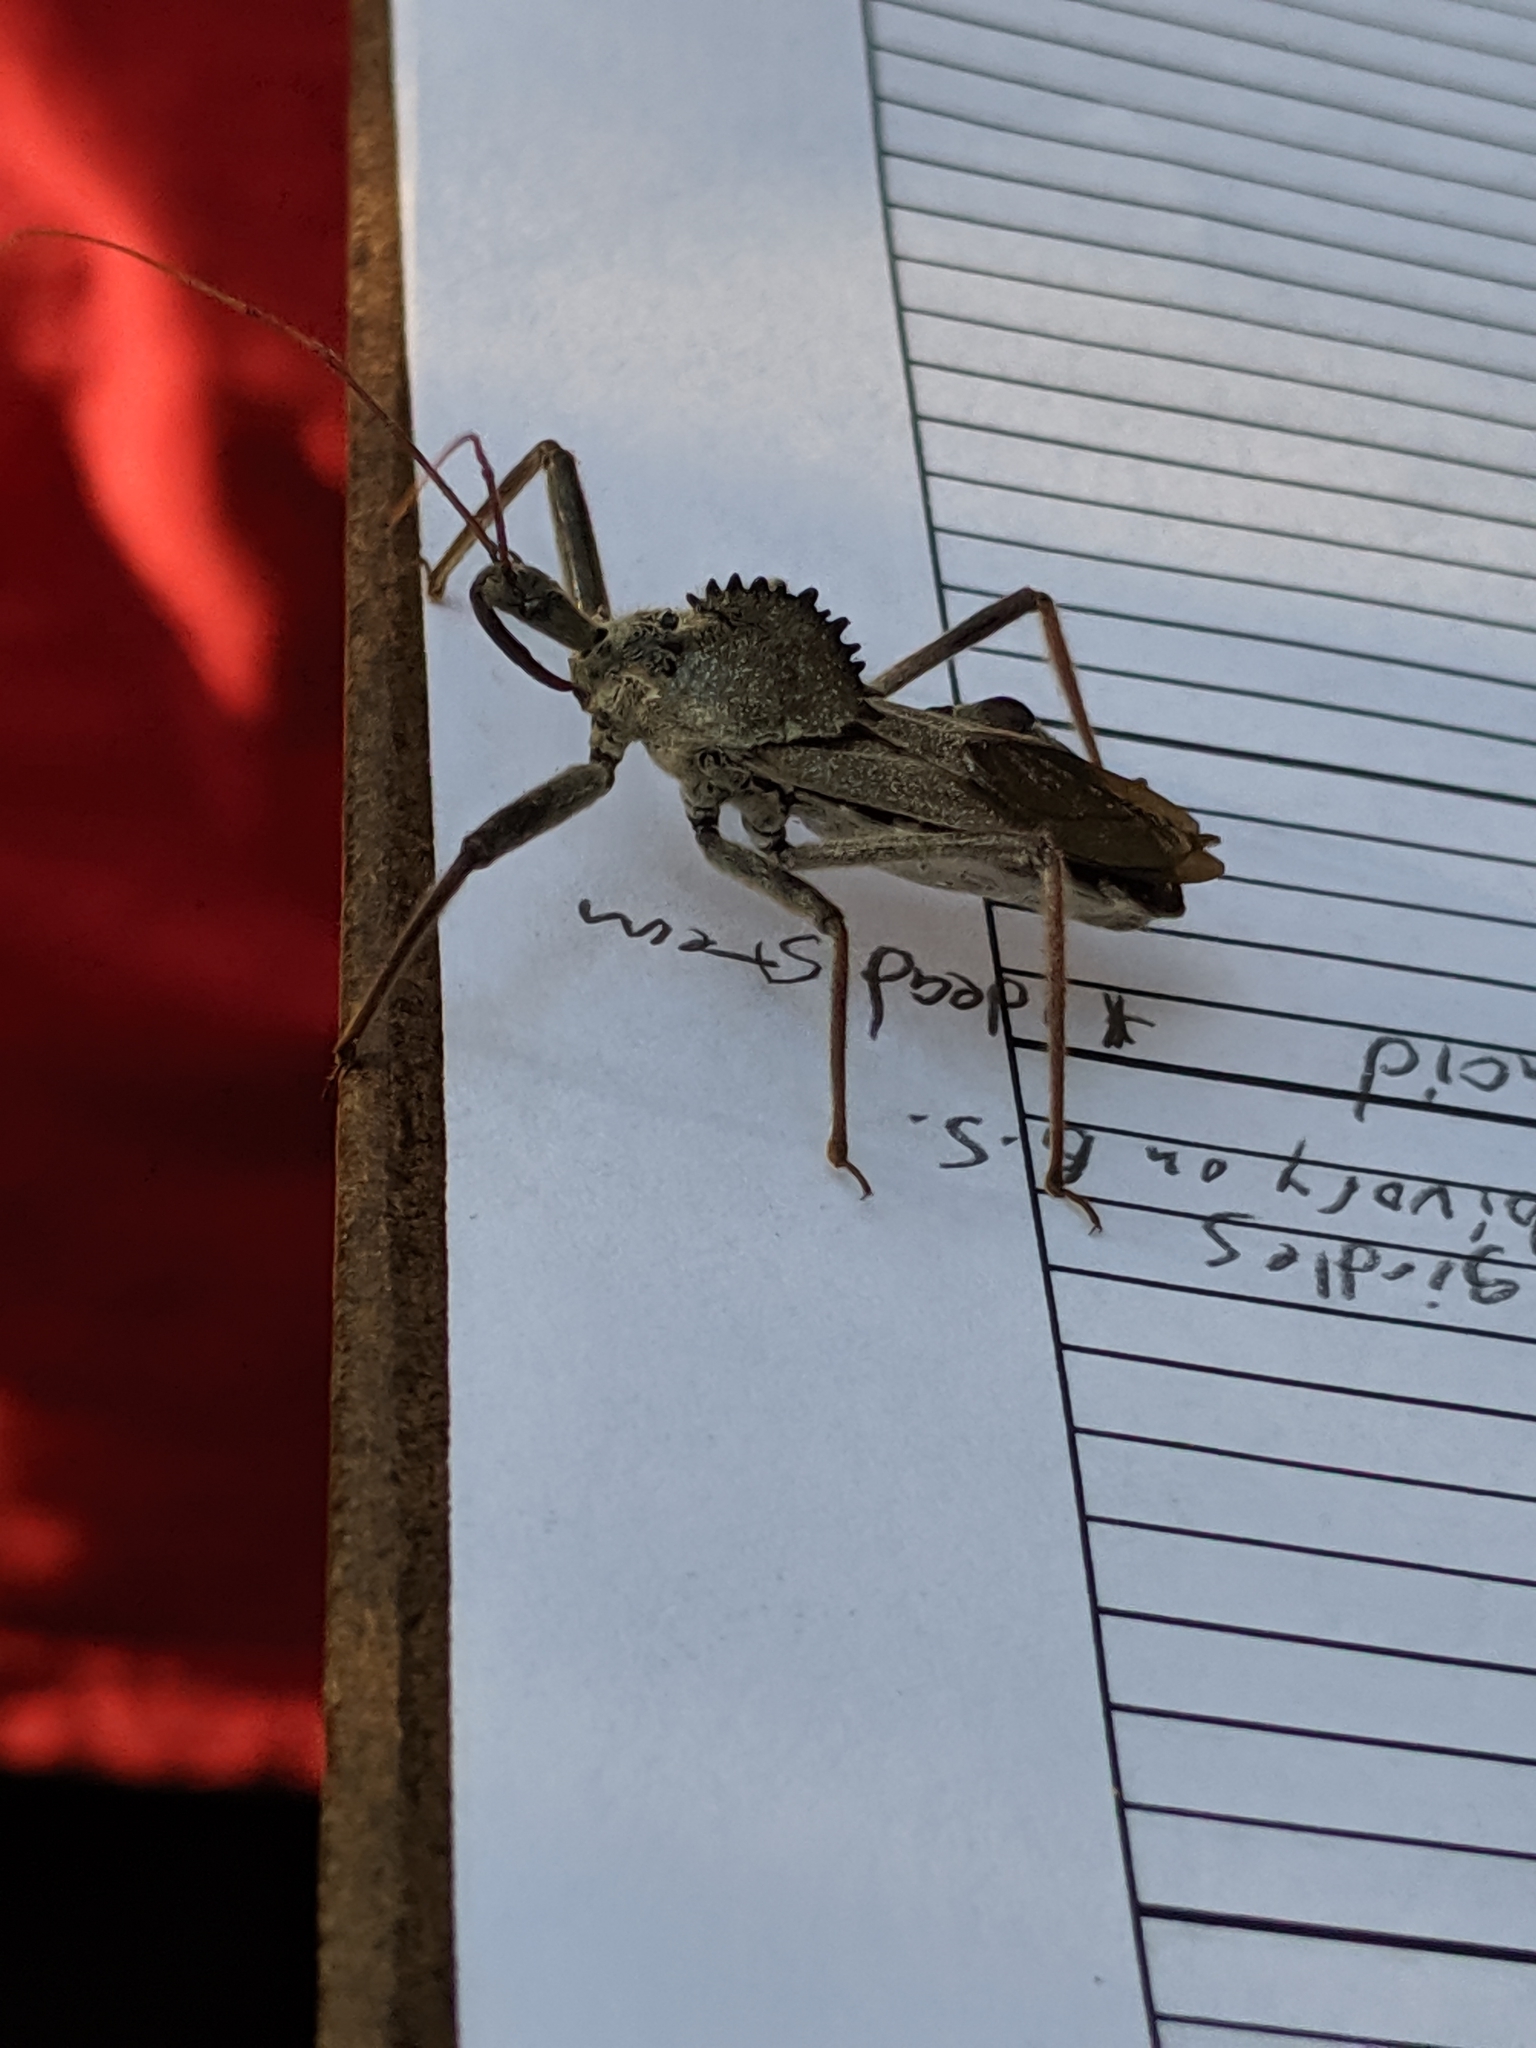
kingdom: Animalia
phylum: Arthropoda
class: Insecta
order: Hemiptera
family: Reduviidae
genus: Arilus
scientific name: Arilus cristatus
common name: North american wheel bug
